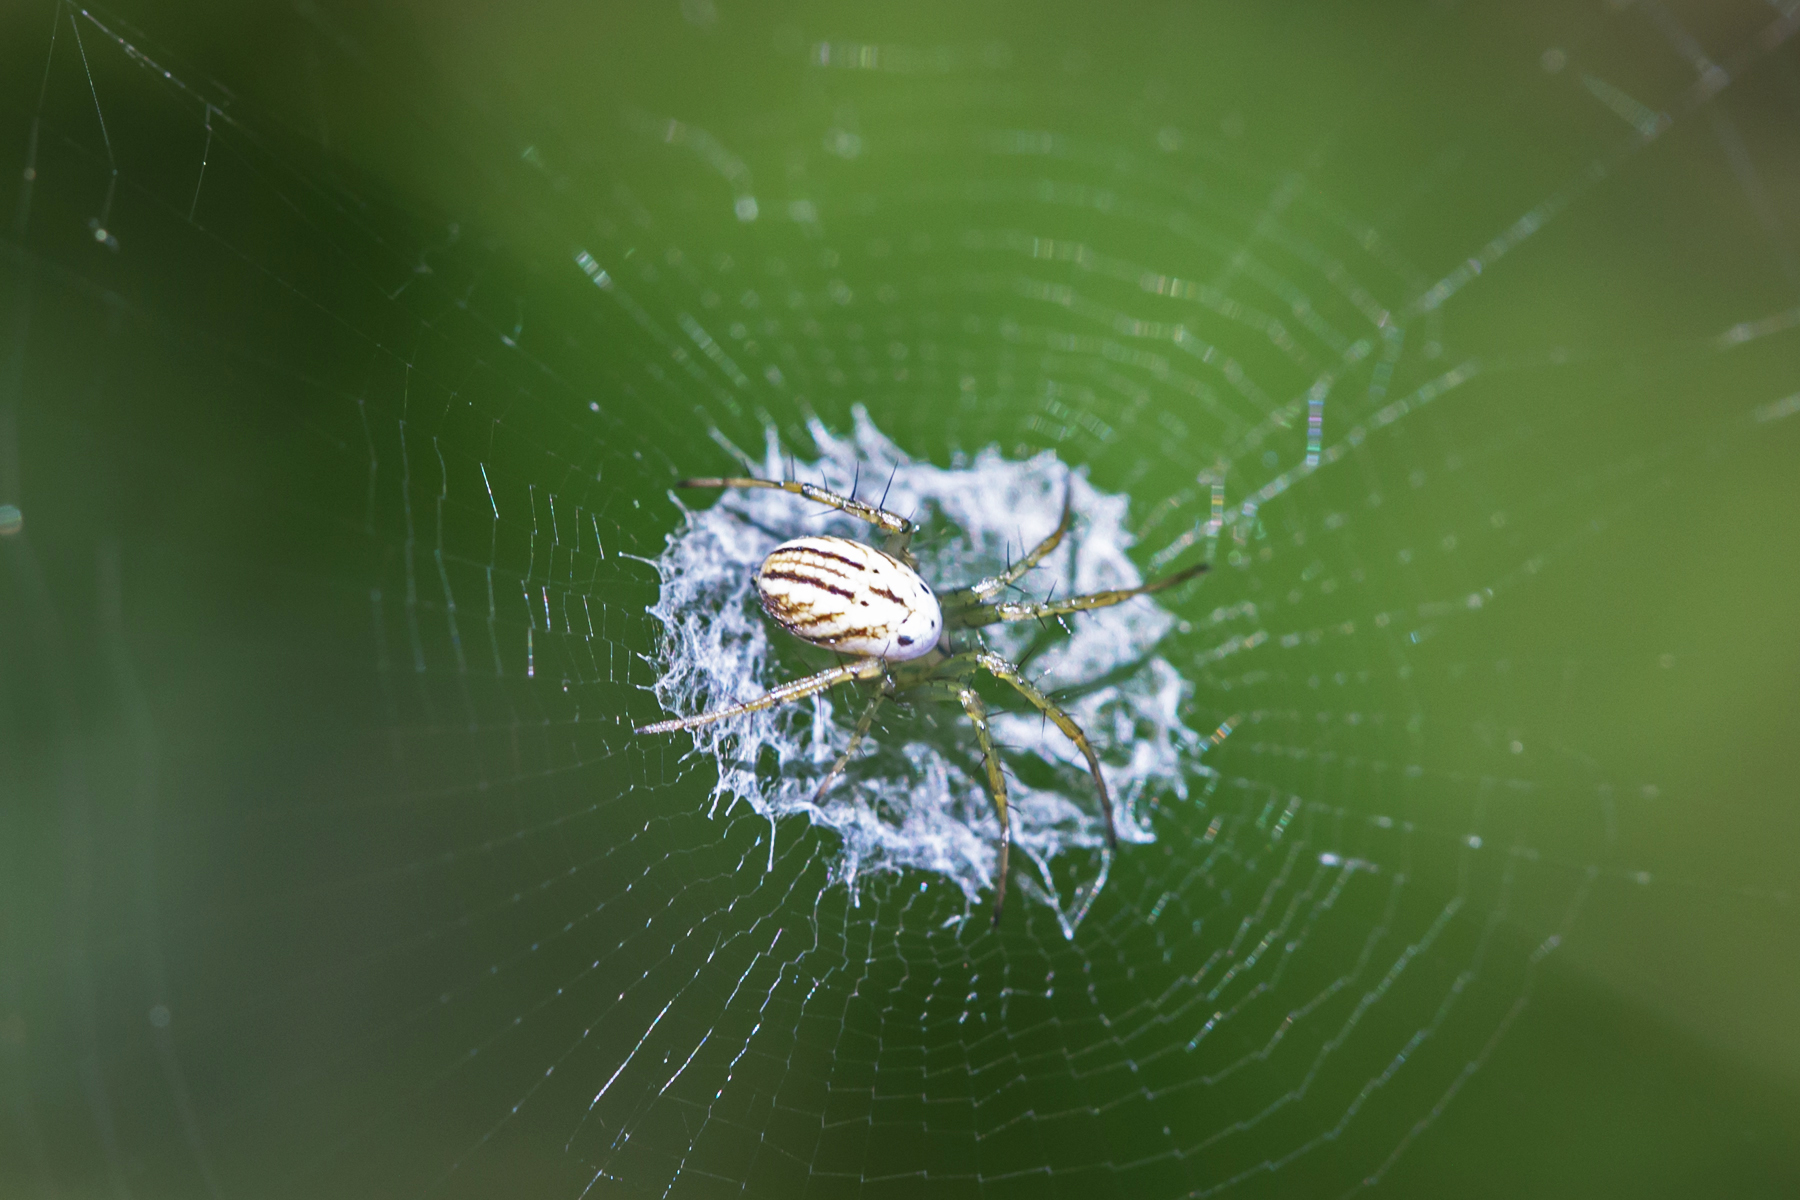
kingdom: Animalia
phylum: Arthropoda
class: Arachnida
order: Araneae
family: Araneidae
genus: Mangora
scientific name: Mangora gibberosa
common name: Lined orbweaver
